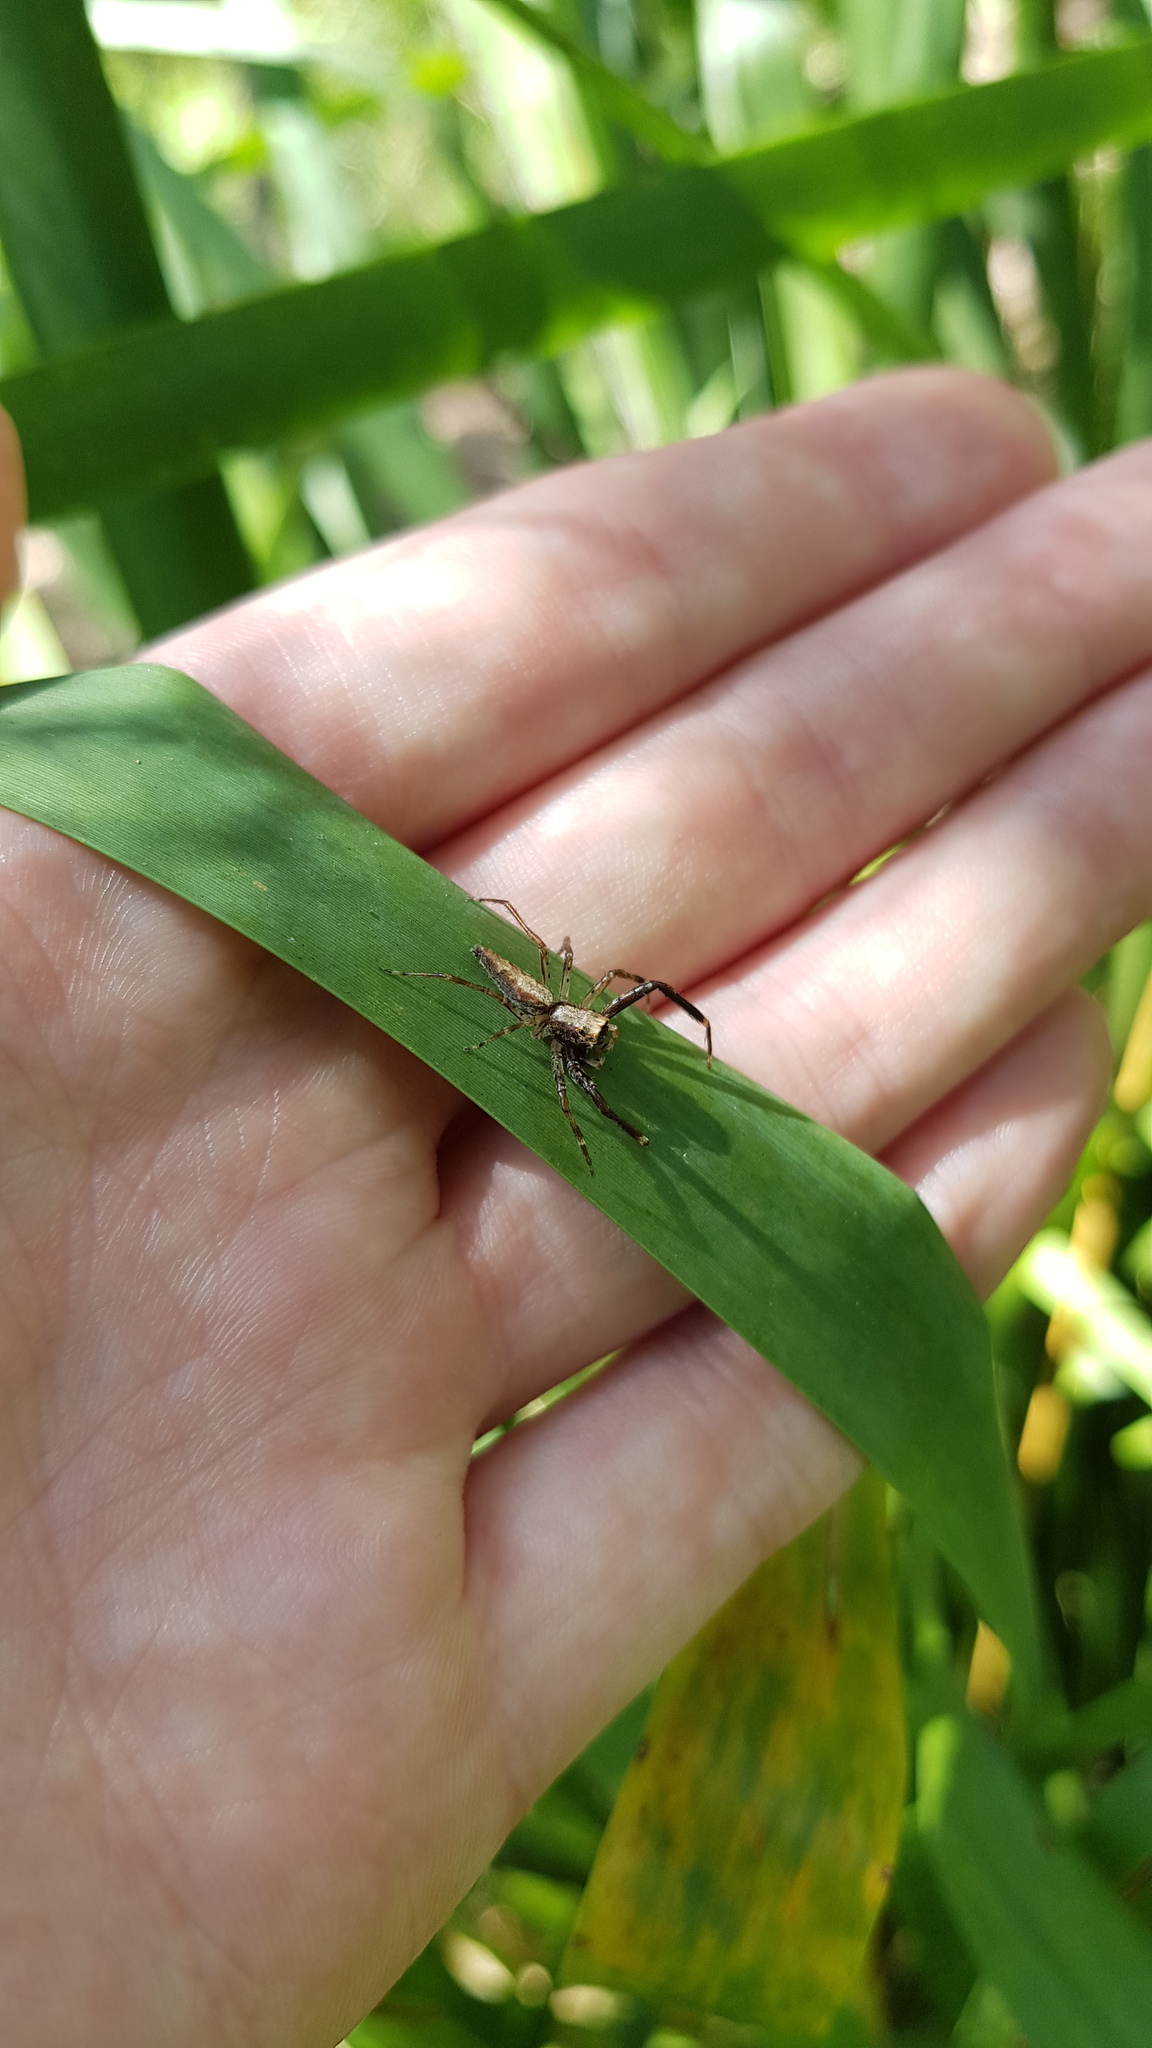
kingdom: Animalia
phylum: Arthropoda
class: Arachnida
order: Araneae
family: Salticidae
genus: Helpis
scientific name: Helpis minitabunda
